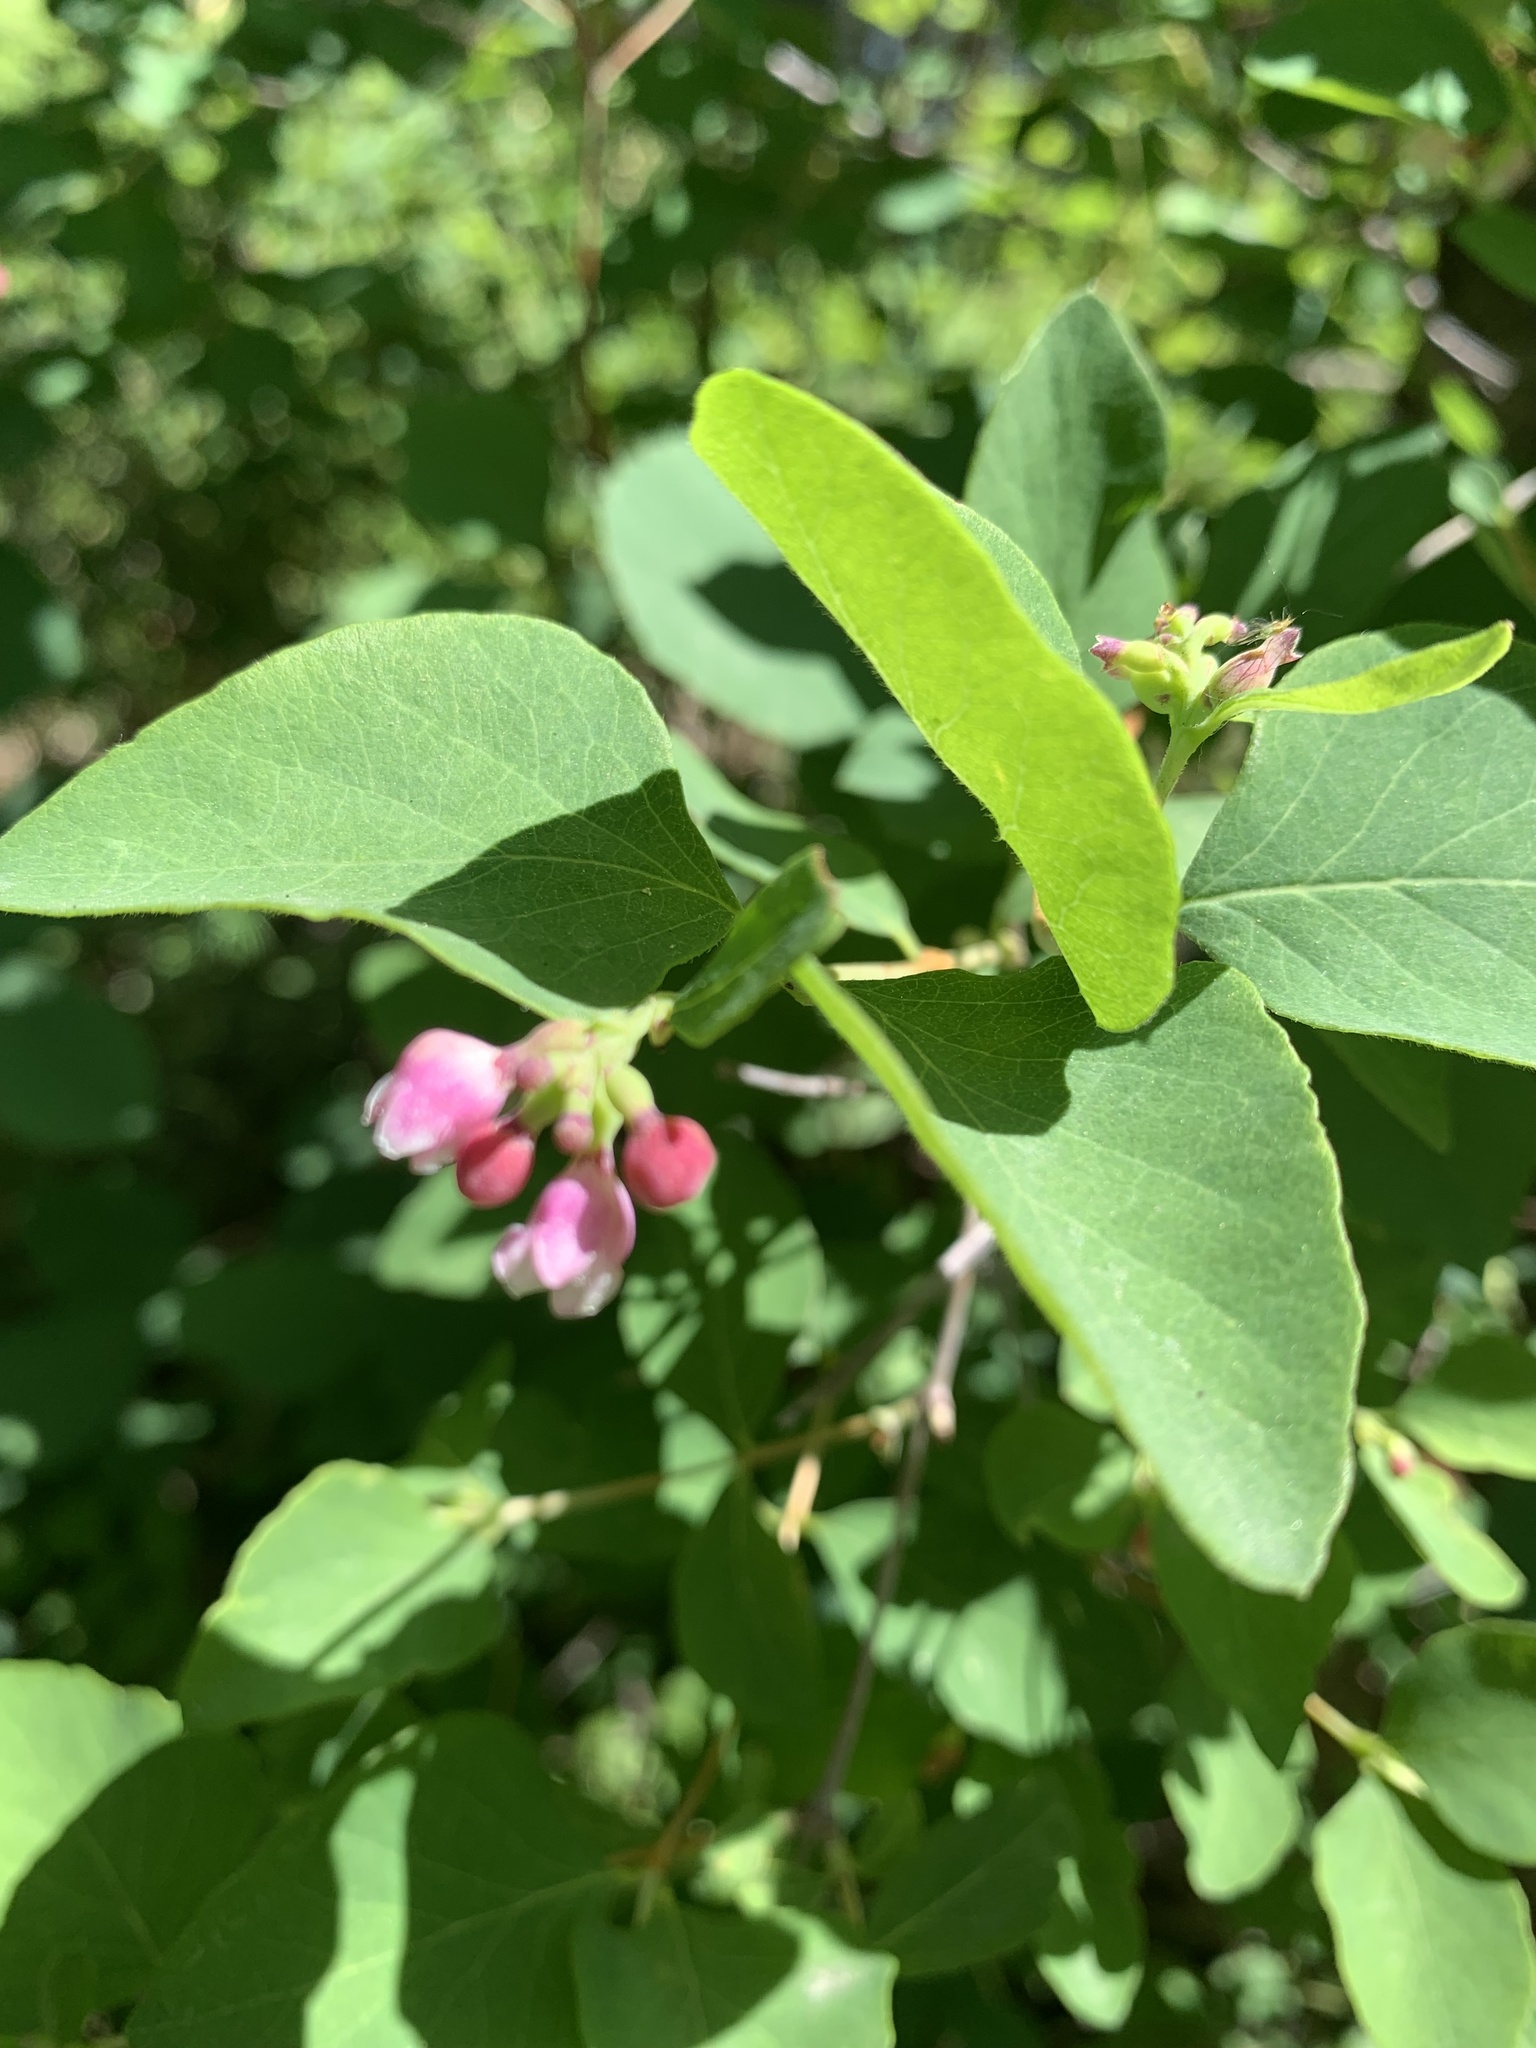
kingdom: Plantae
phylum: Tracheophyta
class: Magnoliopsida
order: Dipsacales
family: Caprifoliaceae
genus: Symphoricarpos
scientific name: Symphoricarpos albus
